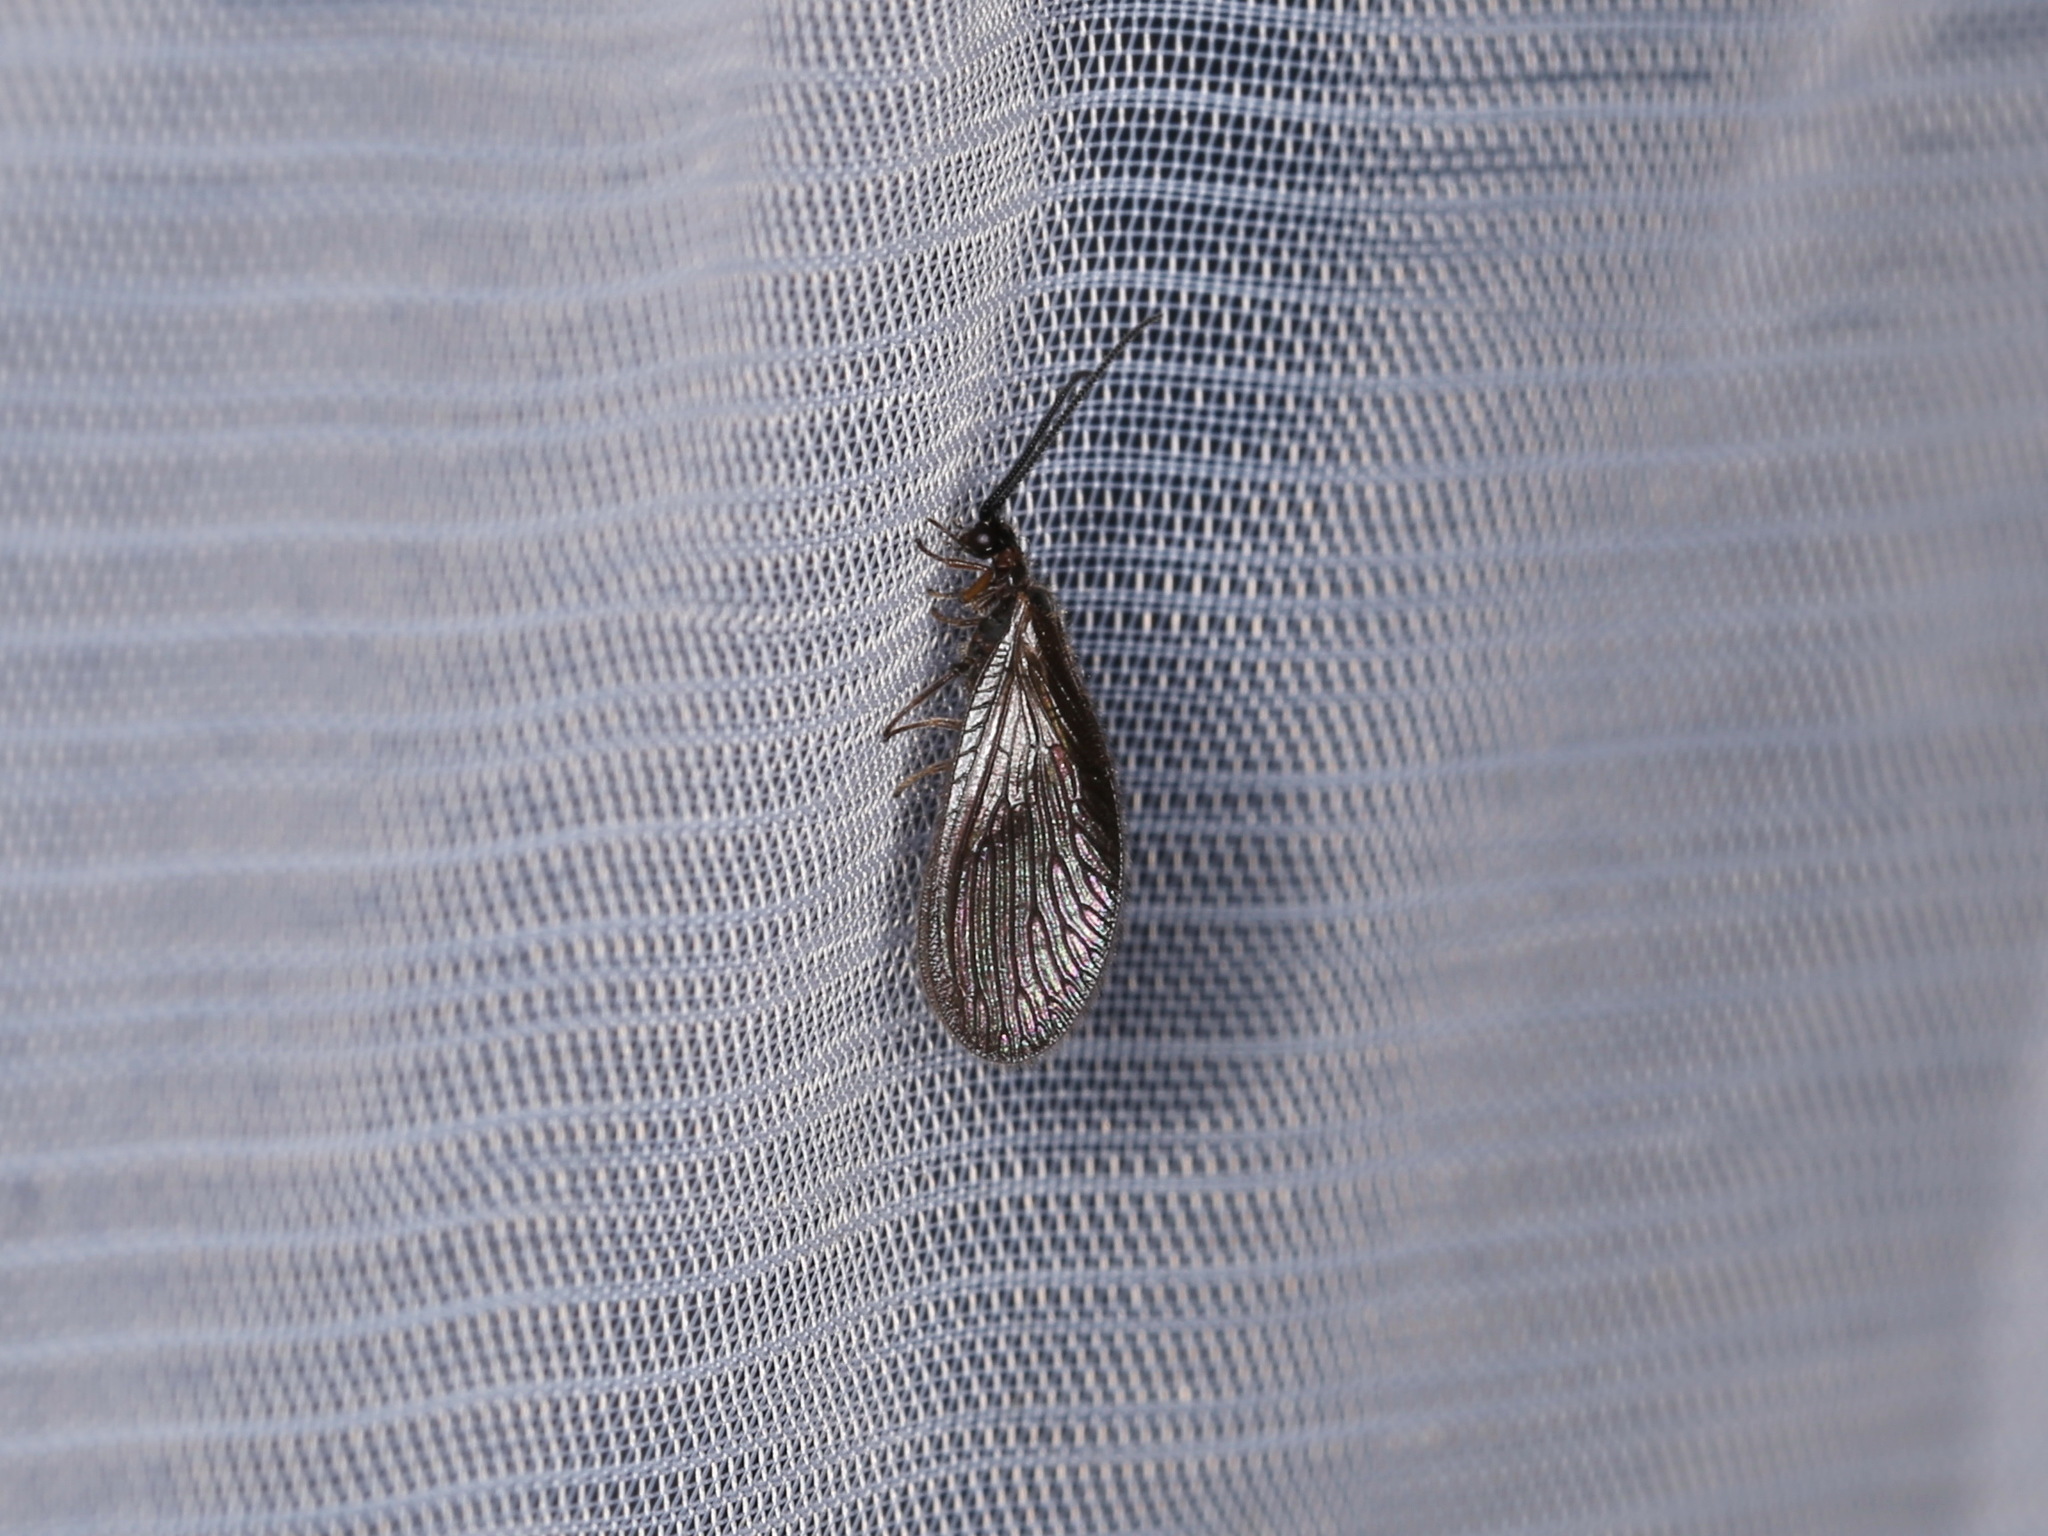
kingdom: Animalia
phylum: Arthropoda
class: Insecta
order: Neuroptera
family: Sisyridae
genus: Sisyra
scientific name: Sisyra nigra
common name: Black spongillafly
